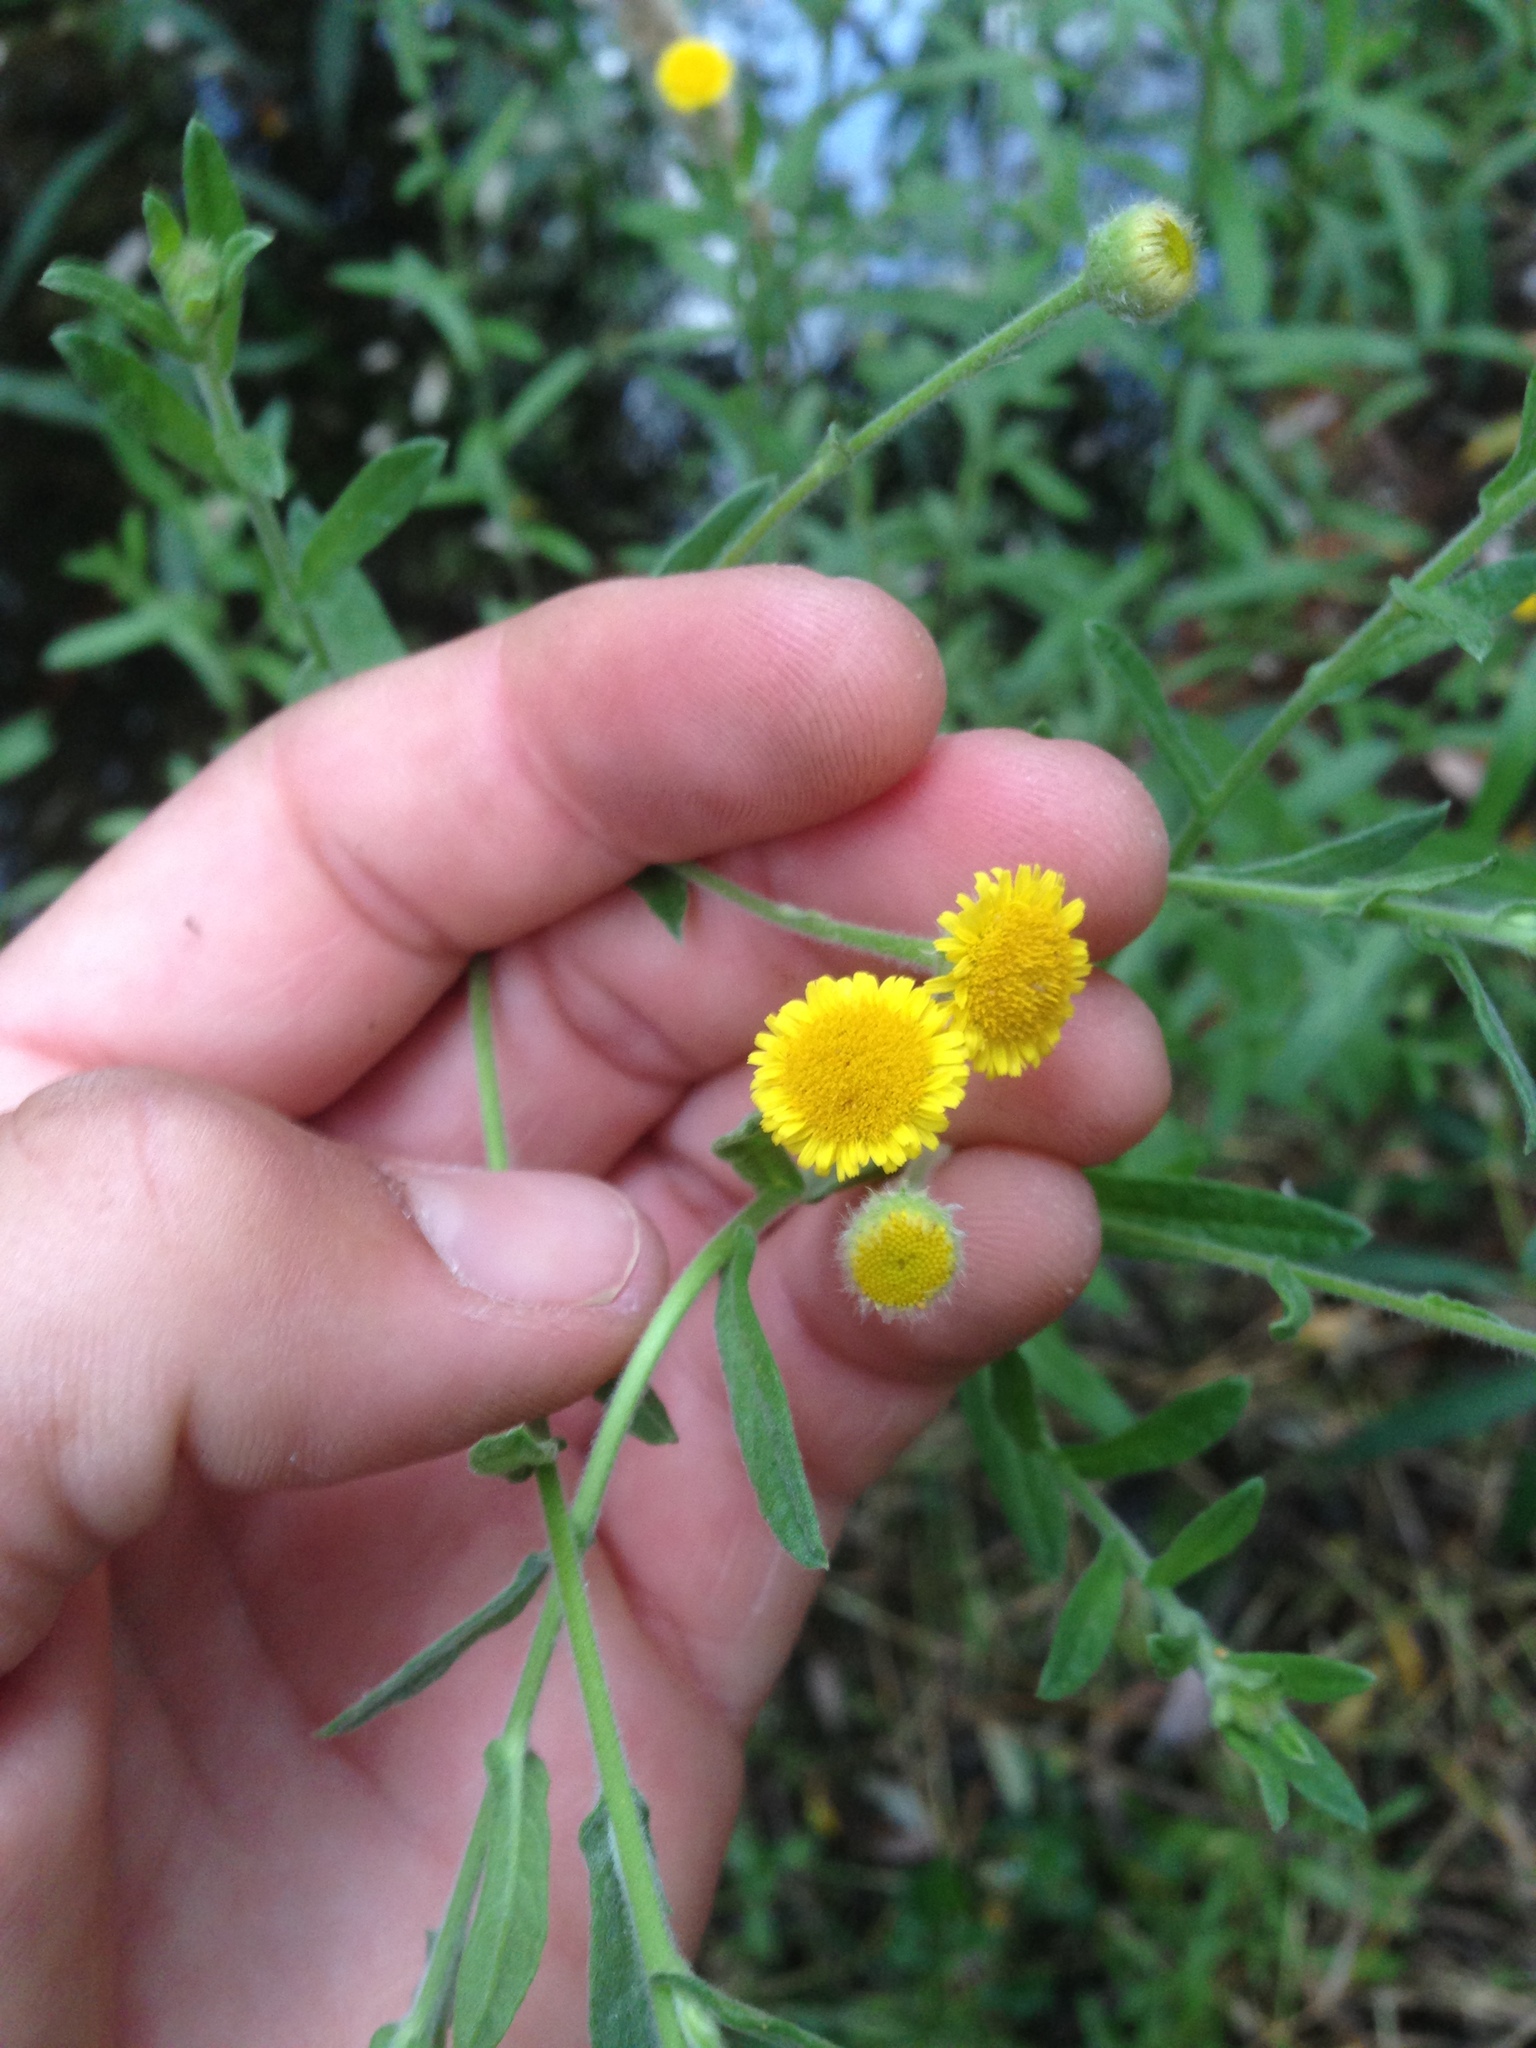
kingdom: Plantae
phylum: Tracheophyta
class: Magnoliopsida
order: Asterales
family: Asteraceae
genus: Pulicaria
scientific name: Pulicaria paludosa
